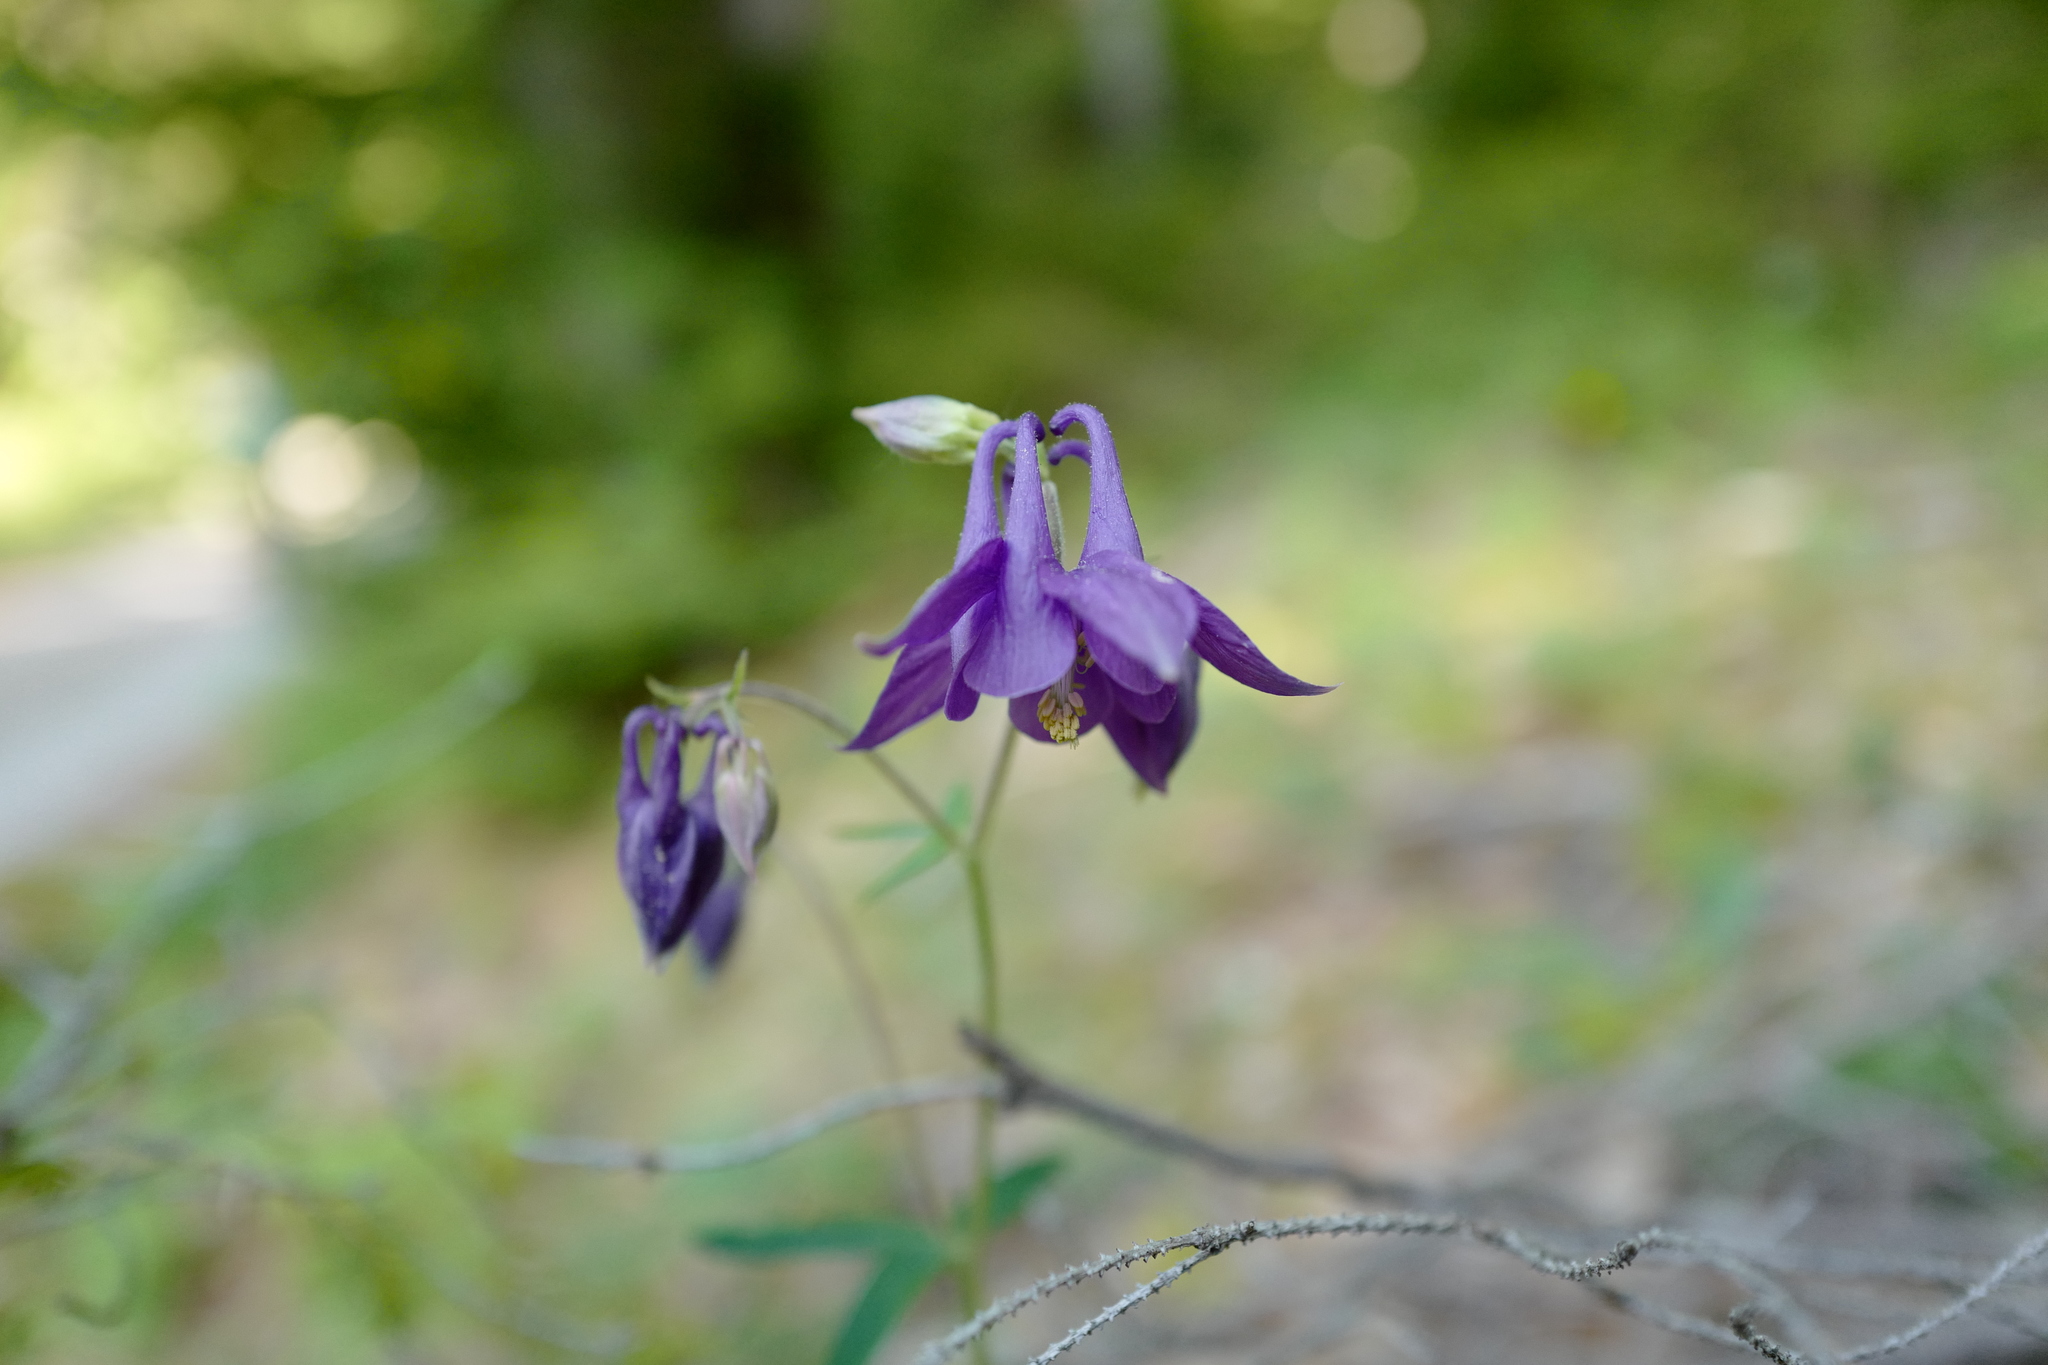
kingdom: Plantae
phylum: Tracheophyta
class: Magnoliopsida
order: Ranunculales
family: Ranunculaceae
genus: Aquilegia
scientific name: Aquilegia vulgaris
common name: Columbine
